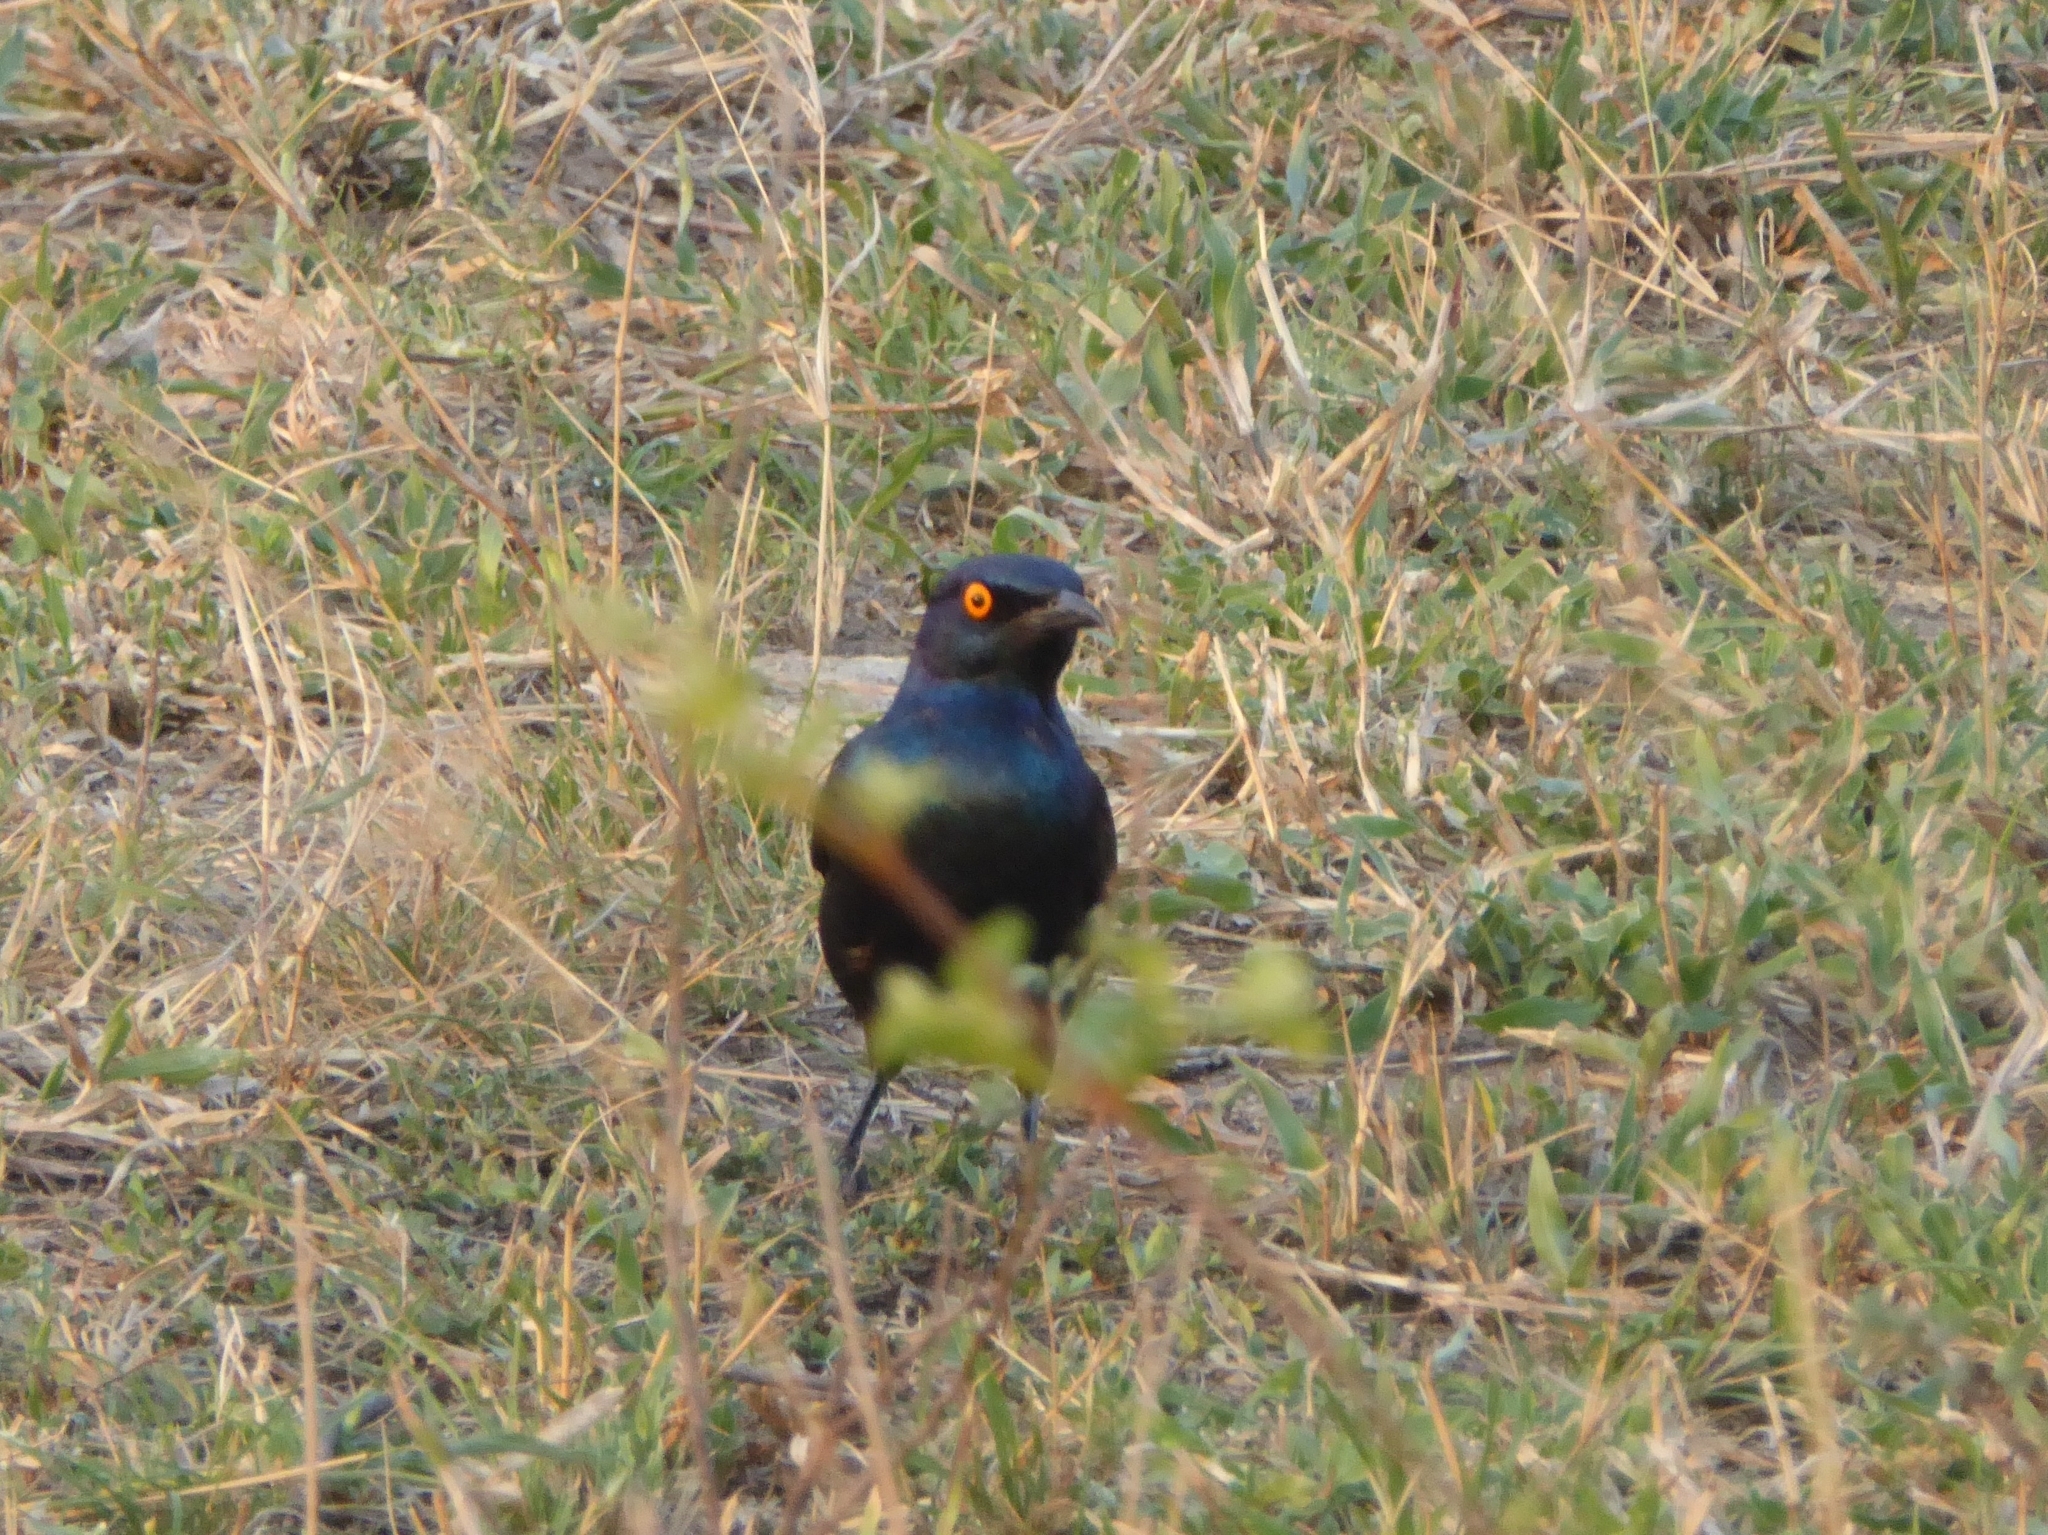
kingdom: Animalia
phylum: Chordata
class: Aves
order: Passeriformes
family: Sturnidae
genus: Lamprotornis
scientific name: Lamprotornis nitens
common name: Cape starling
